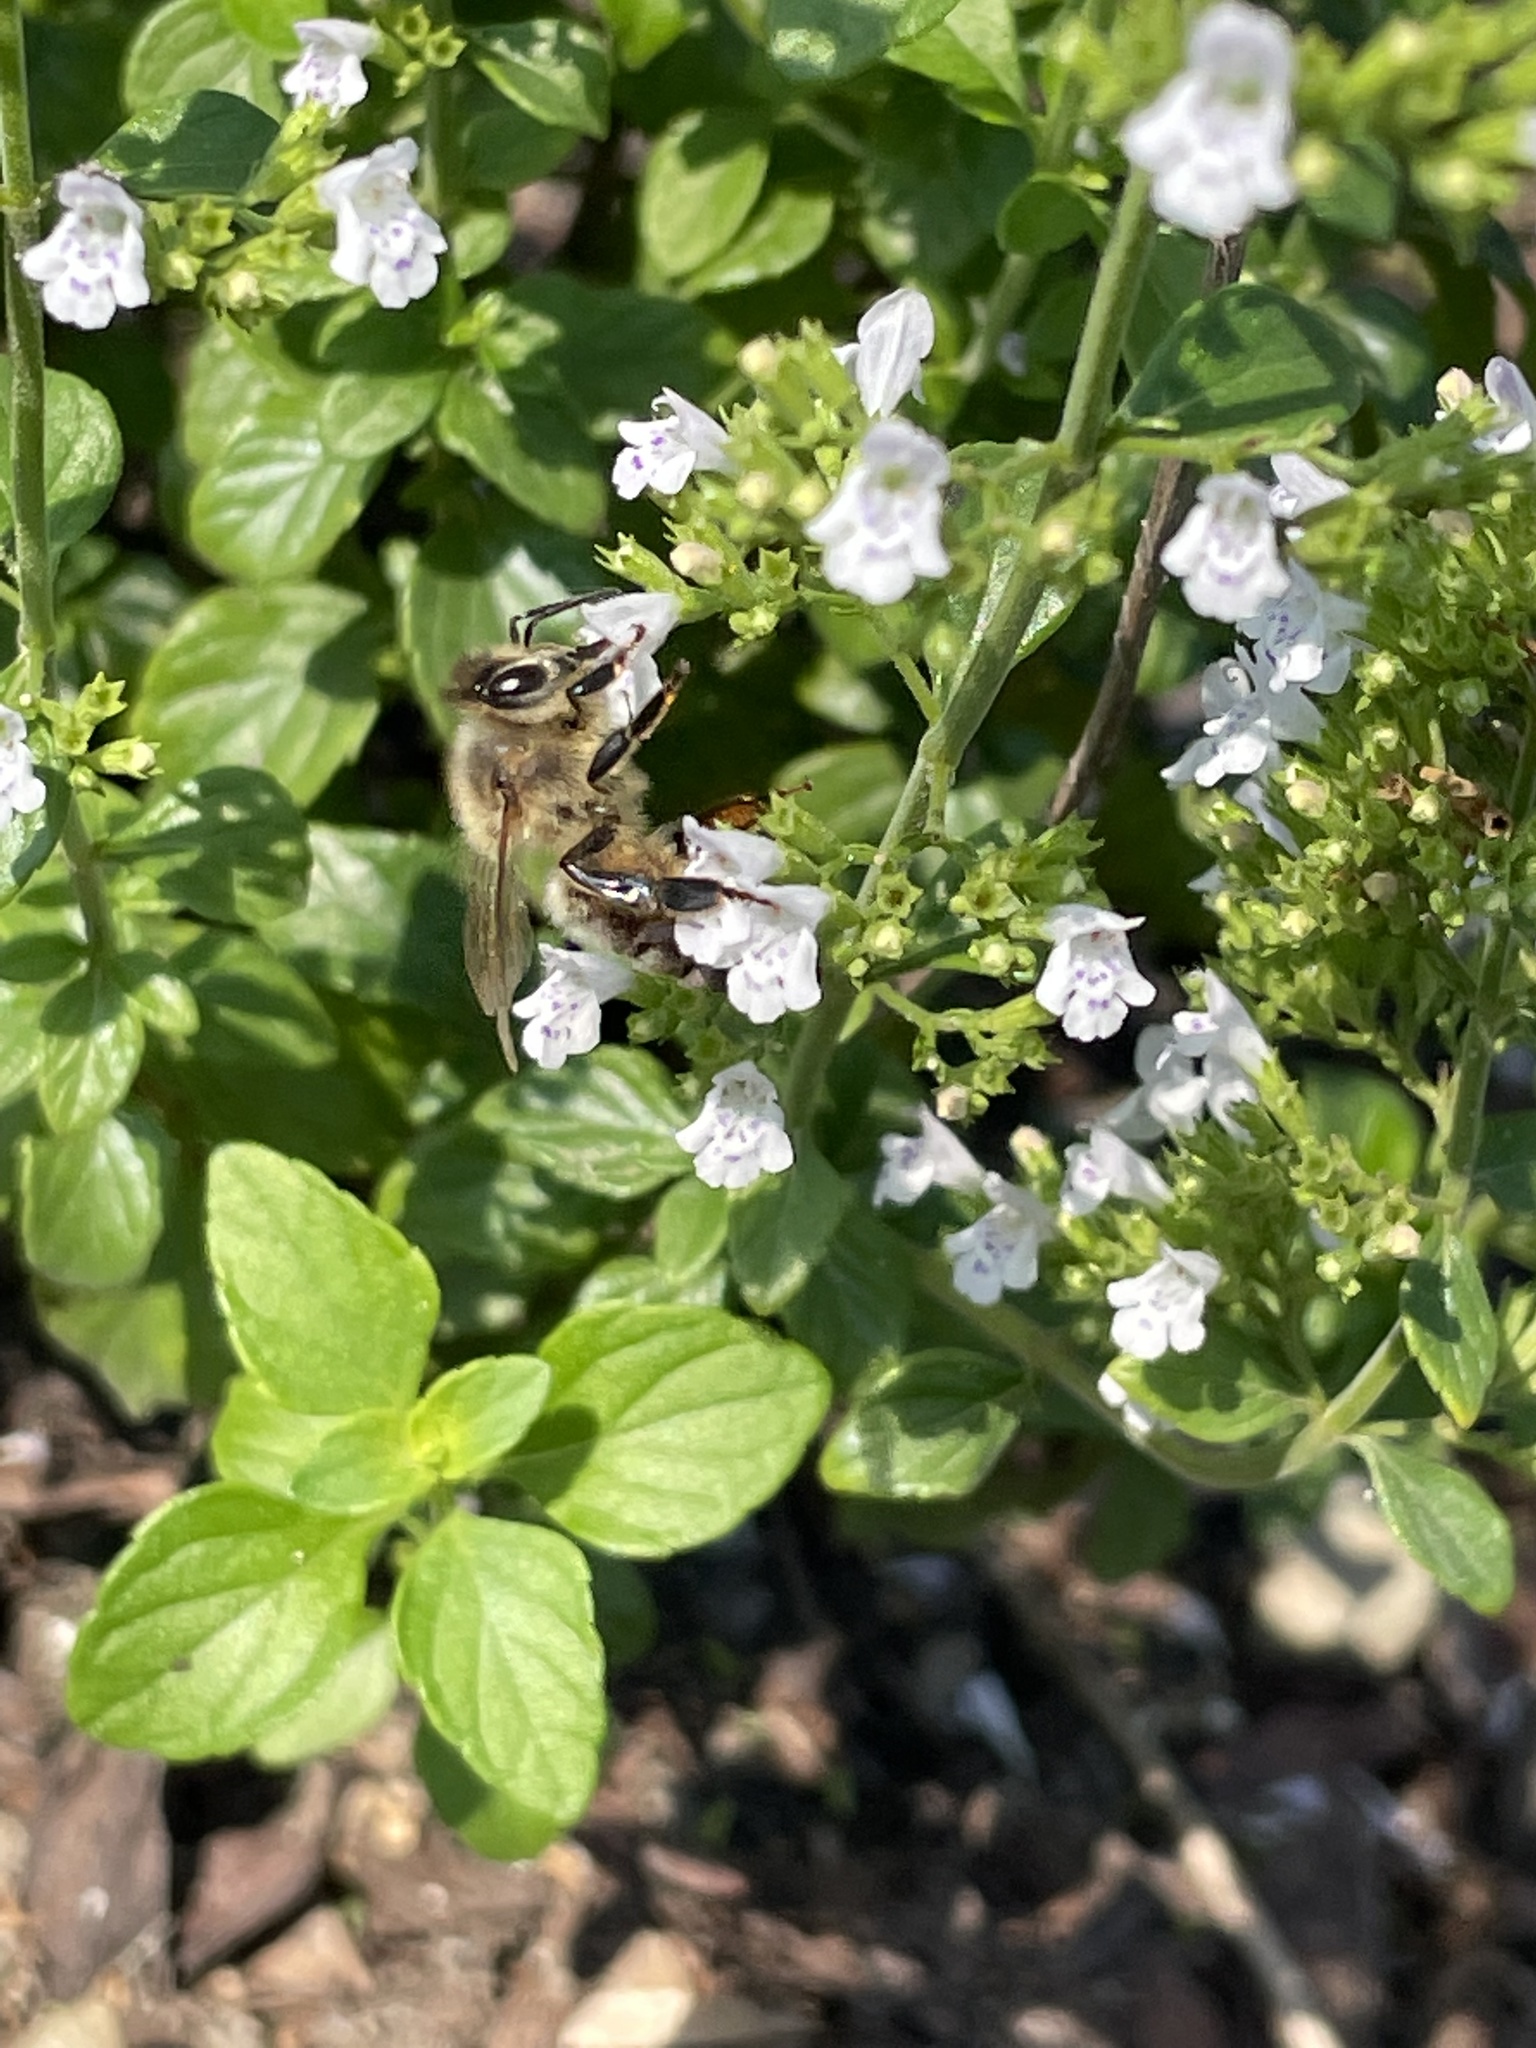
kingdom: Animalia
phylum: Arthropoda
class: Insecta
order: Hymenoptera
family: Apidae
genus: Apis
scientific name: Apis mellifera
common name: Honey bee
